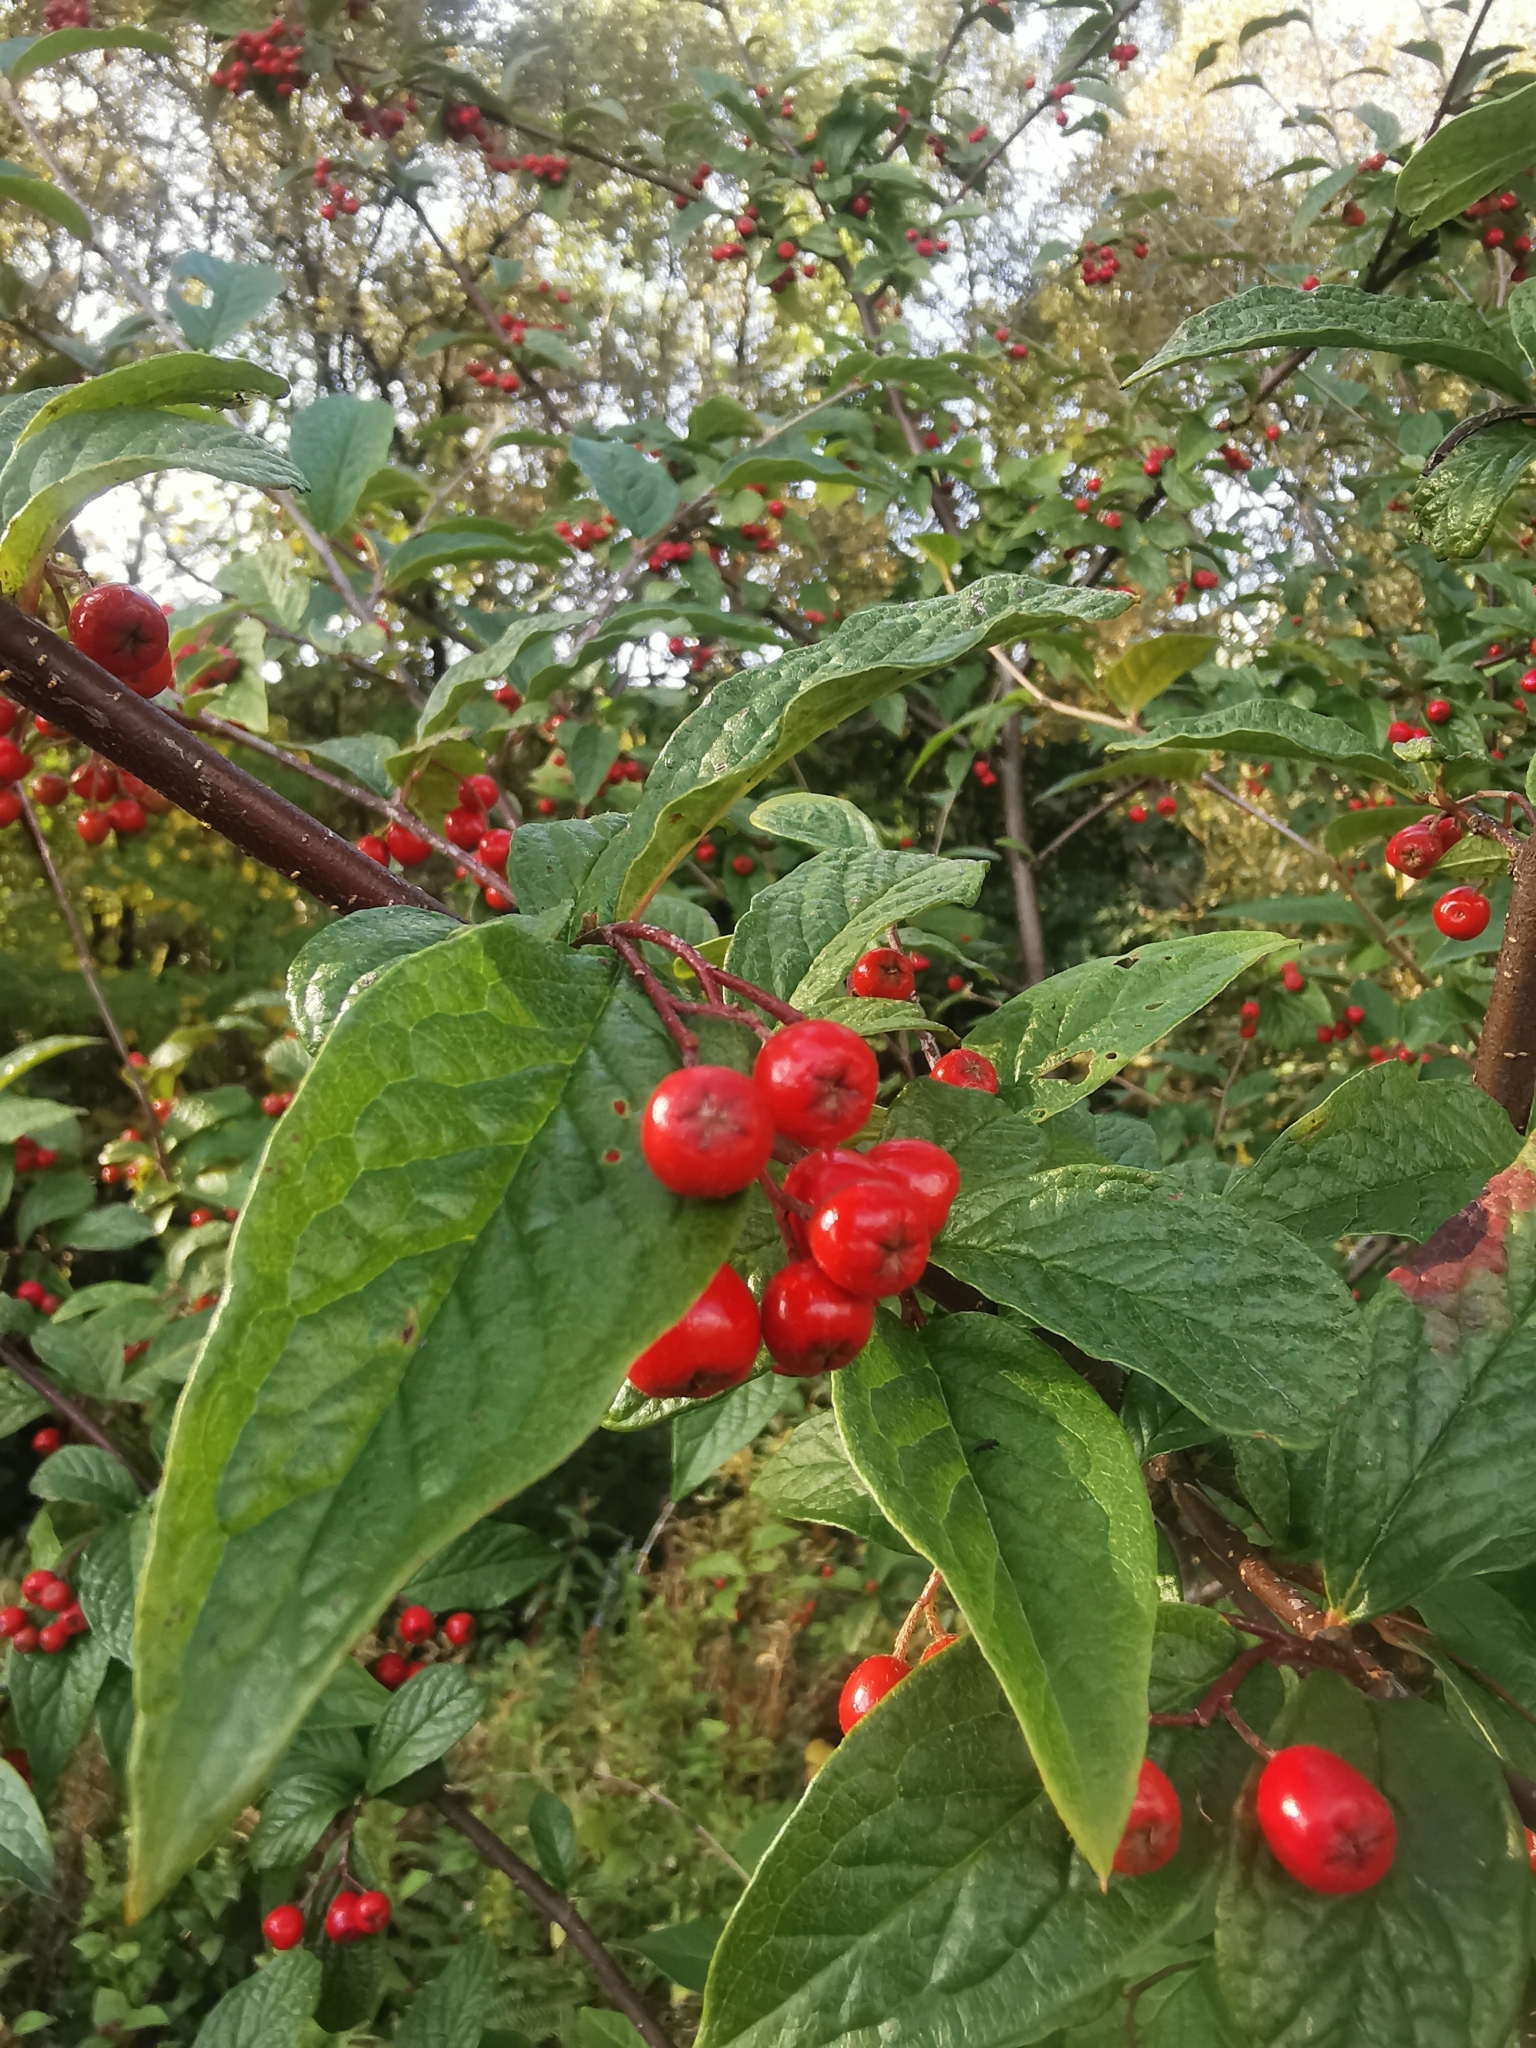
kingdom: Plantae
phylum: Tracheophyta
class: Magnoliopsida
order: Rosales
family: Rosaceae
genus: Cotoneaster
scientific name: Cotoneaster bullatus
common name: Hollyberry cotoneaster
